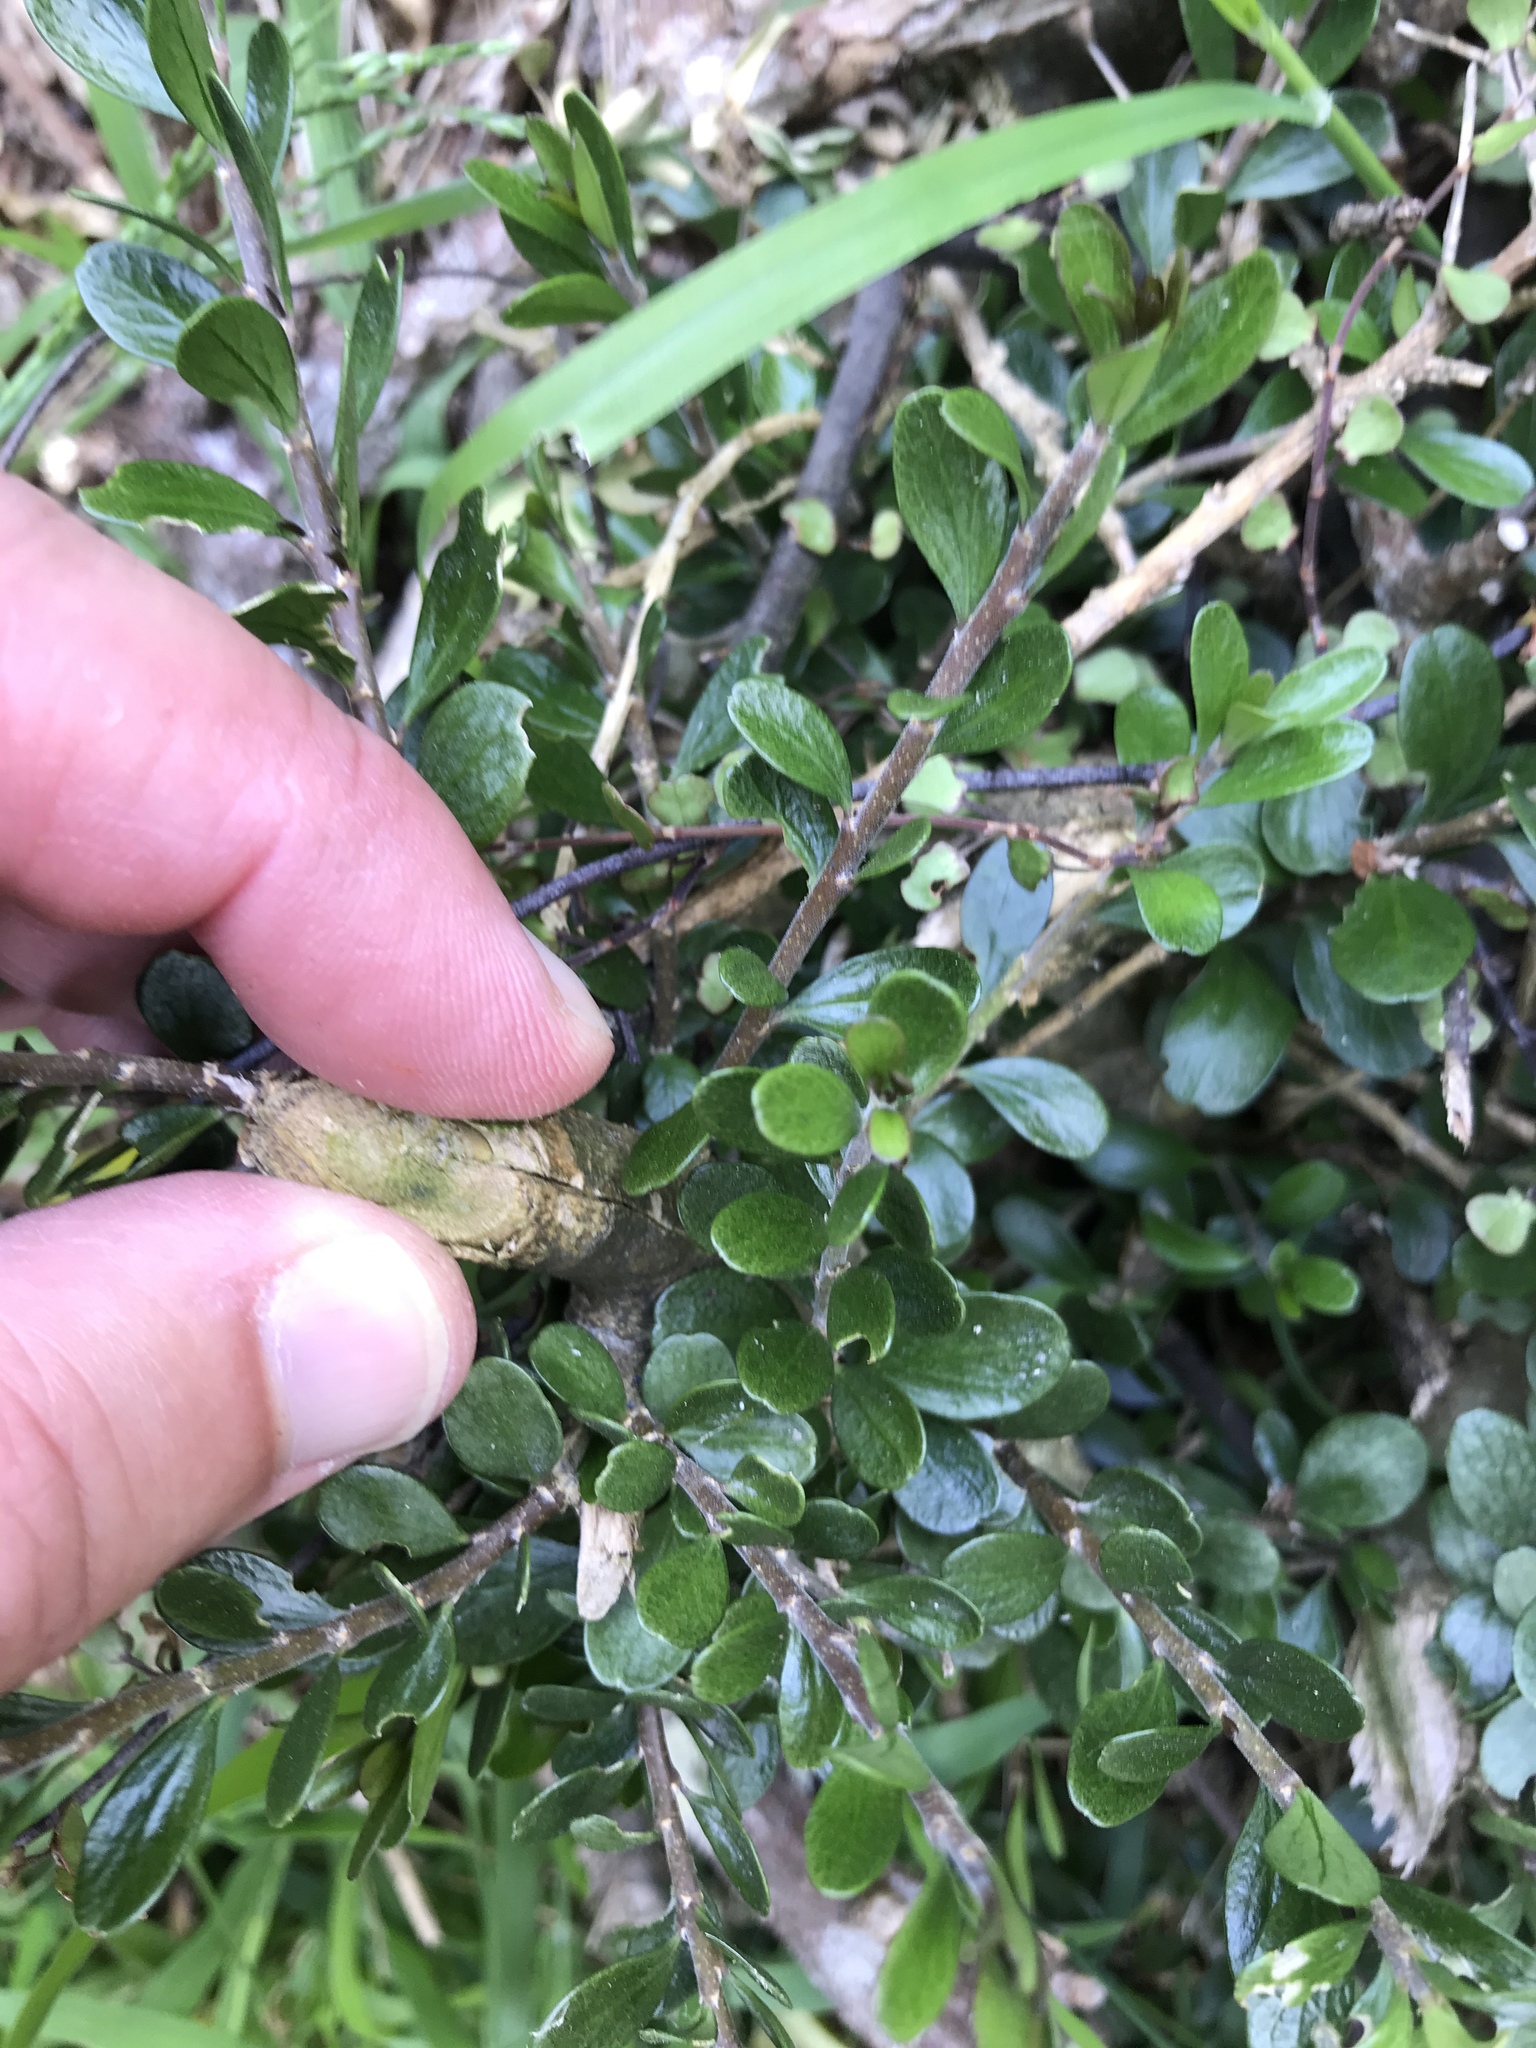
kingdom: Plantae
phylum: Tracheophyta
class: Magnoliopsida
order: Malpighiales
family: Violaceae
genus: Melicytus
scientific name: Melicytus orarius
